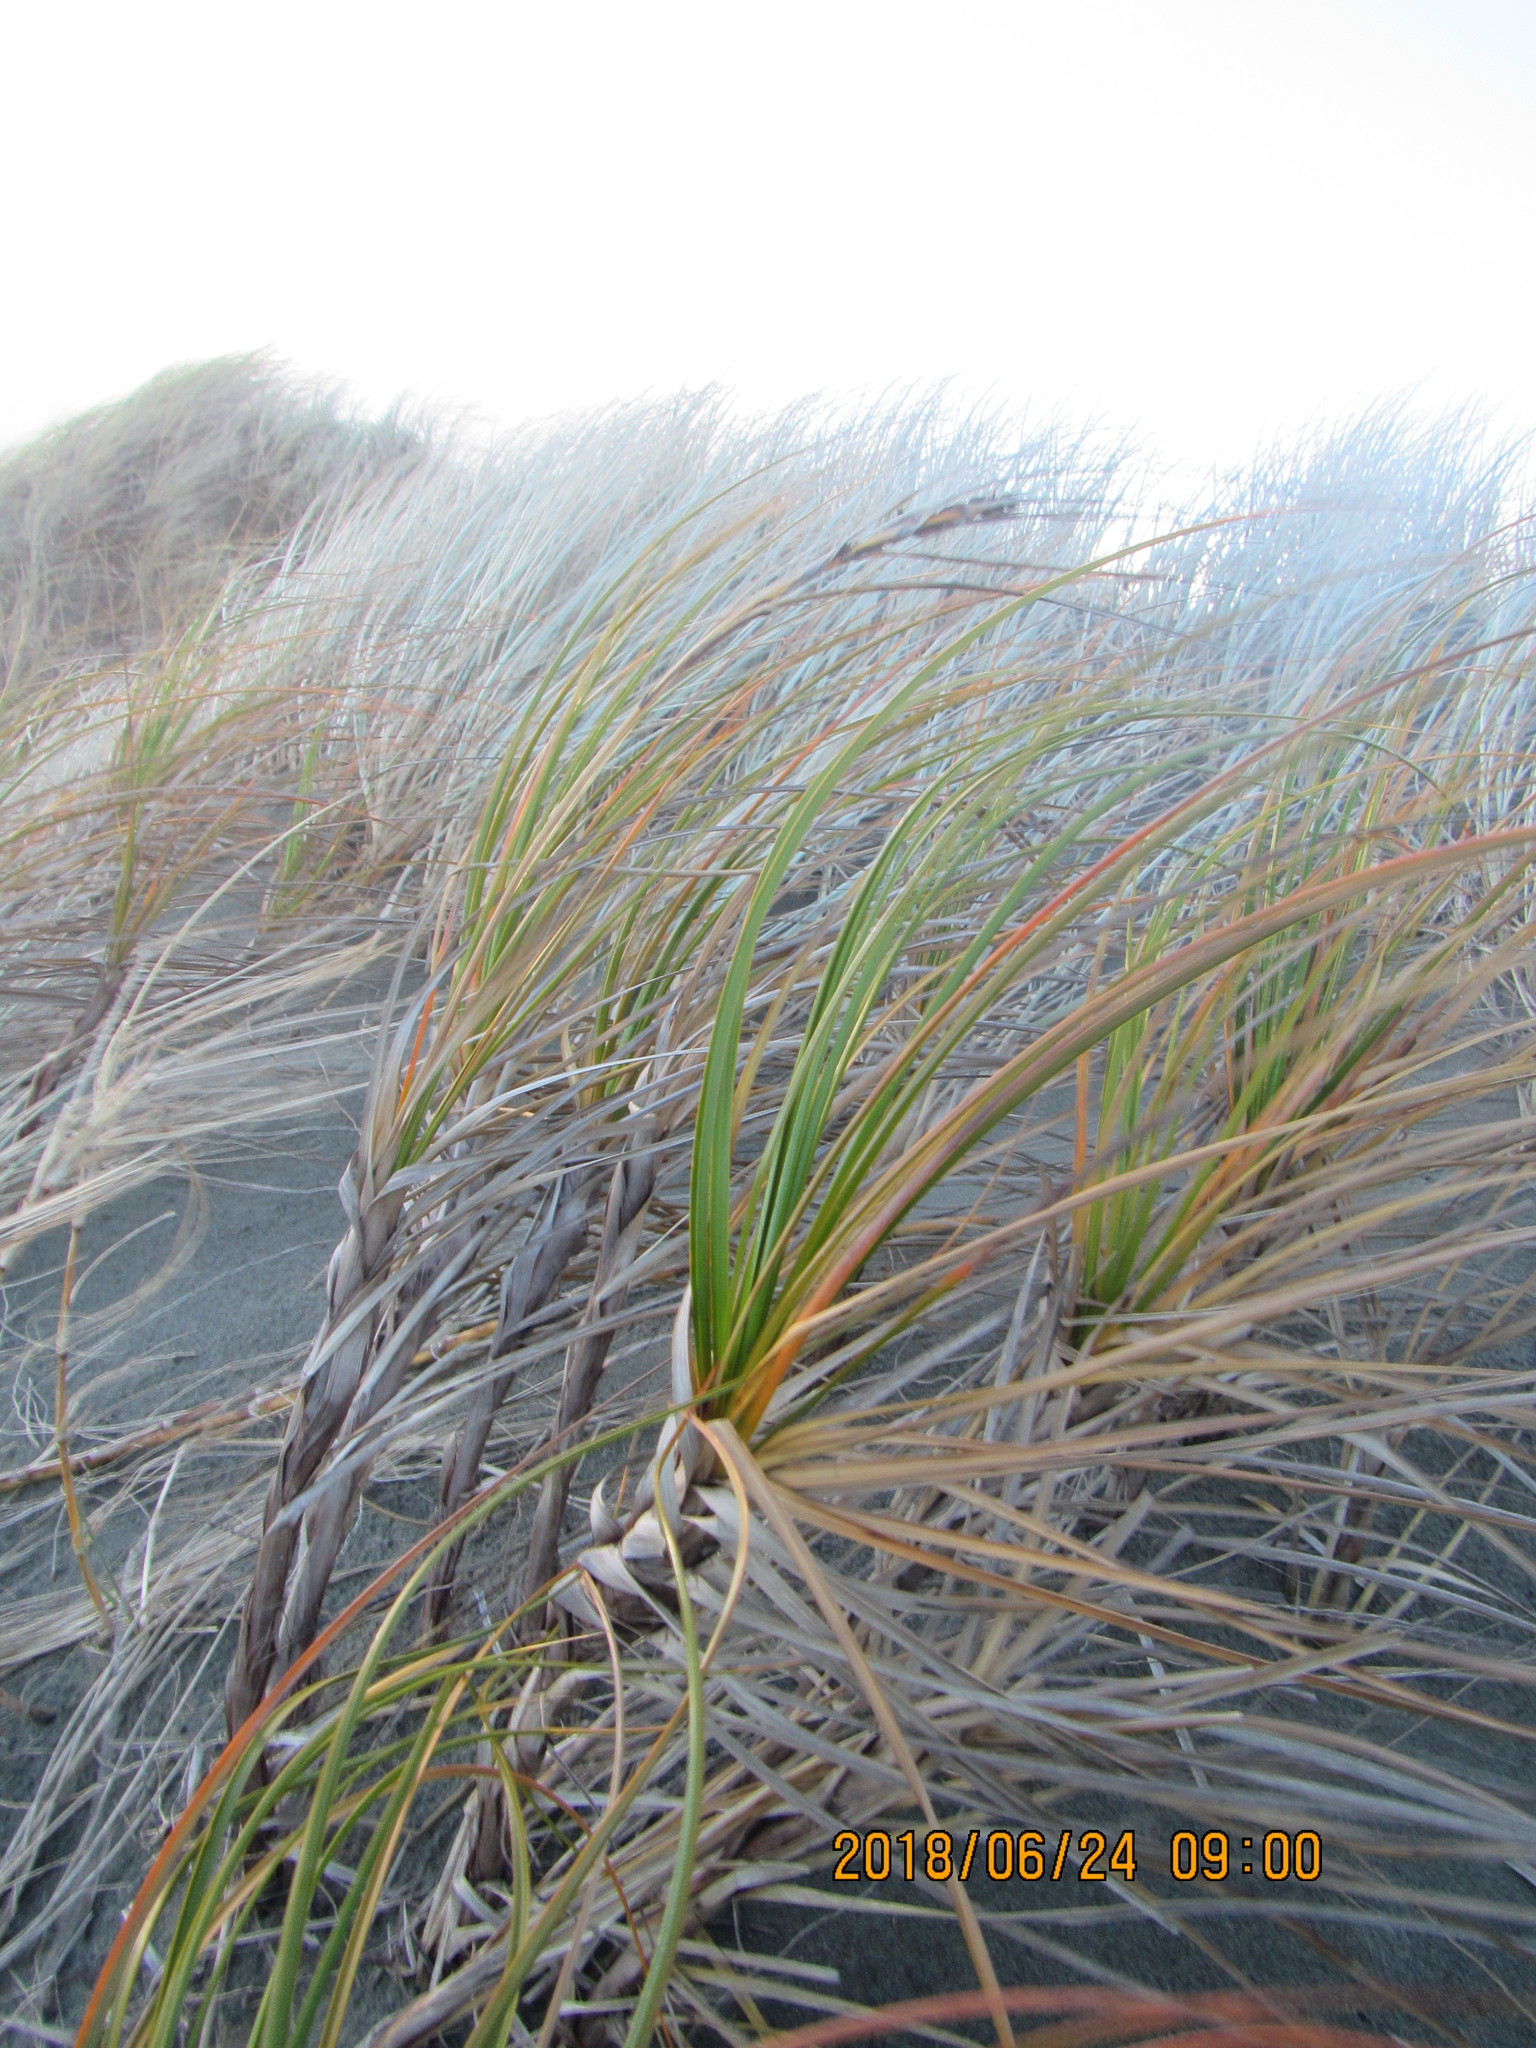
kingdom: Plantae
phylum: Tracheophyta
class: Liliopsida
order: Poales
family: Cyperaceae
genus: Ficinia
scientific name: Ficinia spiralis
